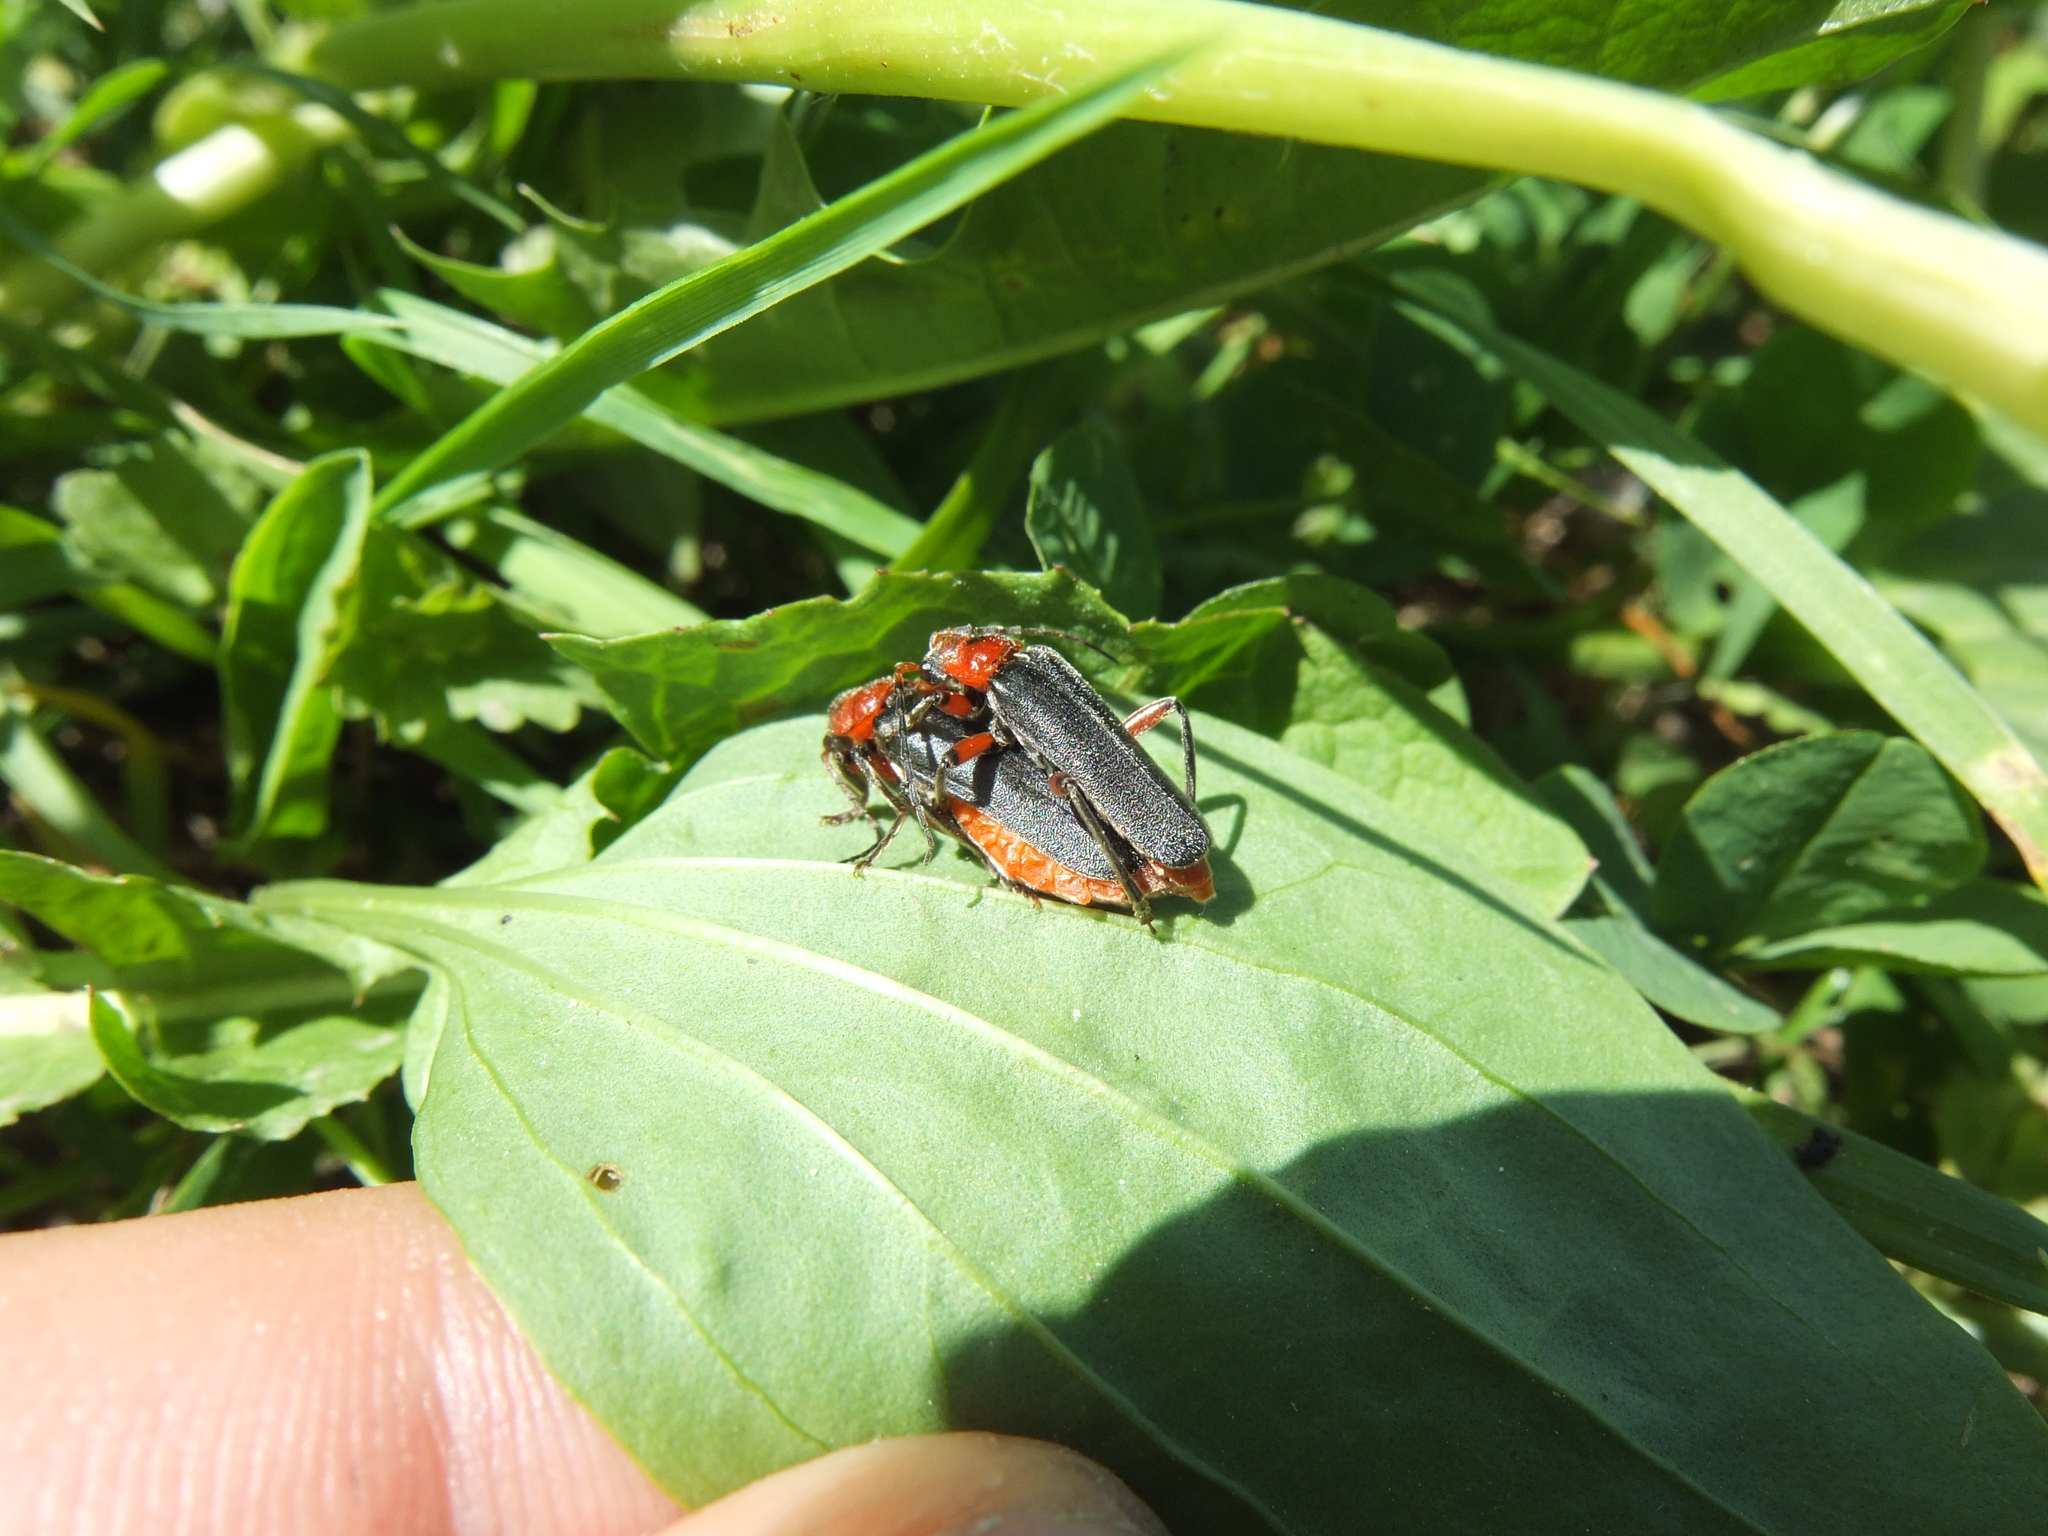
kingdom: Animalia
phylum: Arthropoda
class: Insecta
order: Coleoptera
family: Cantharidae
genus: Cantharis
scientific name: Cantharis rustica
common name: Soldier beetle
